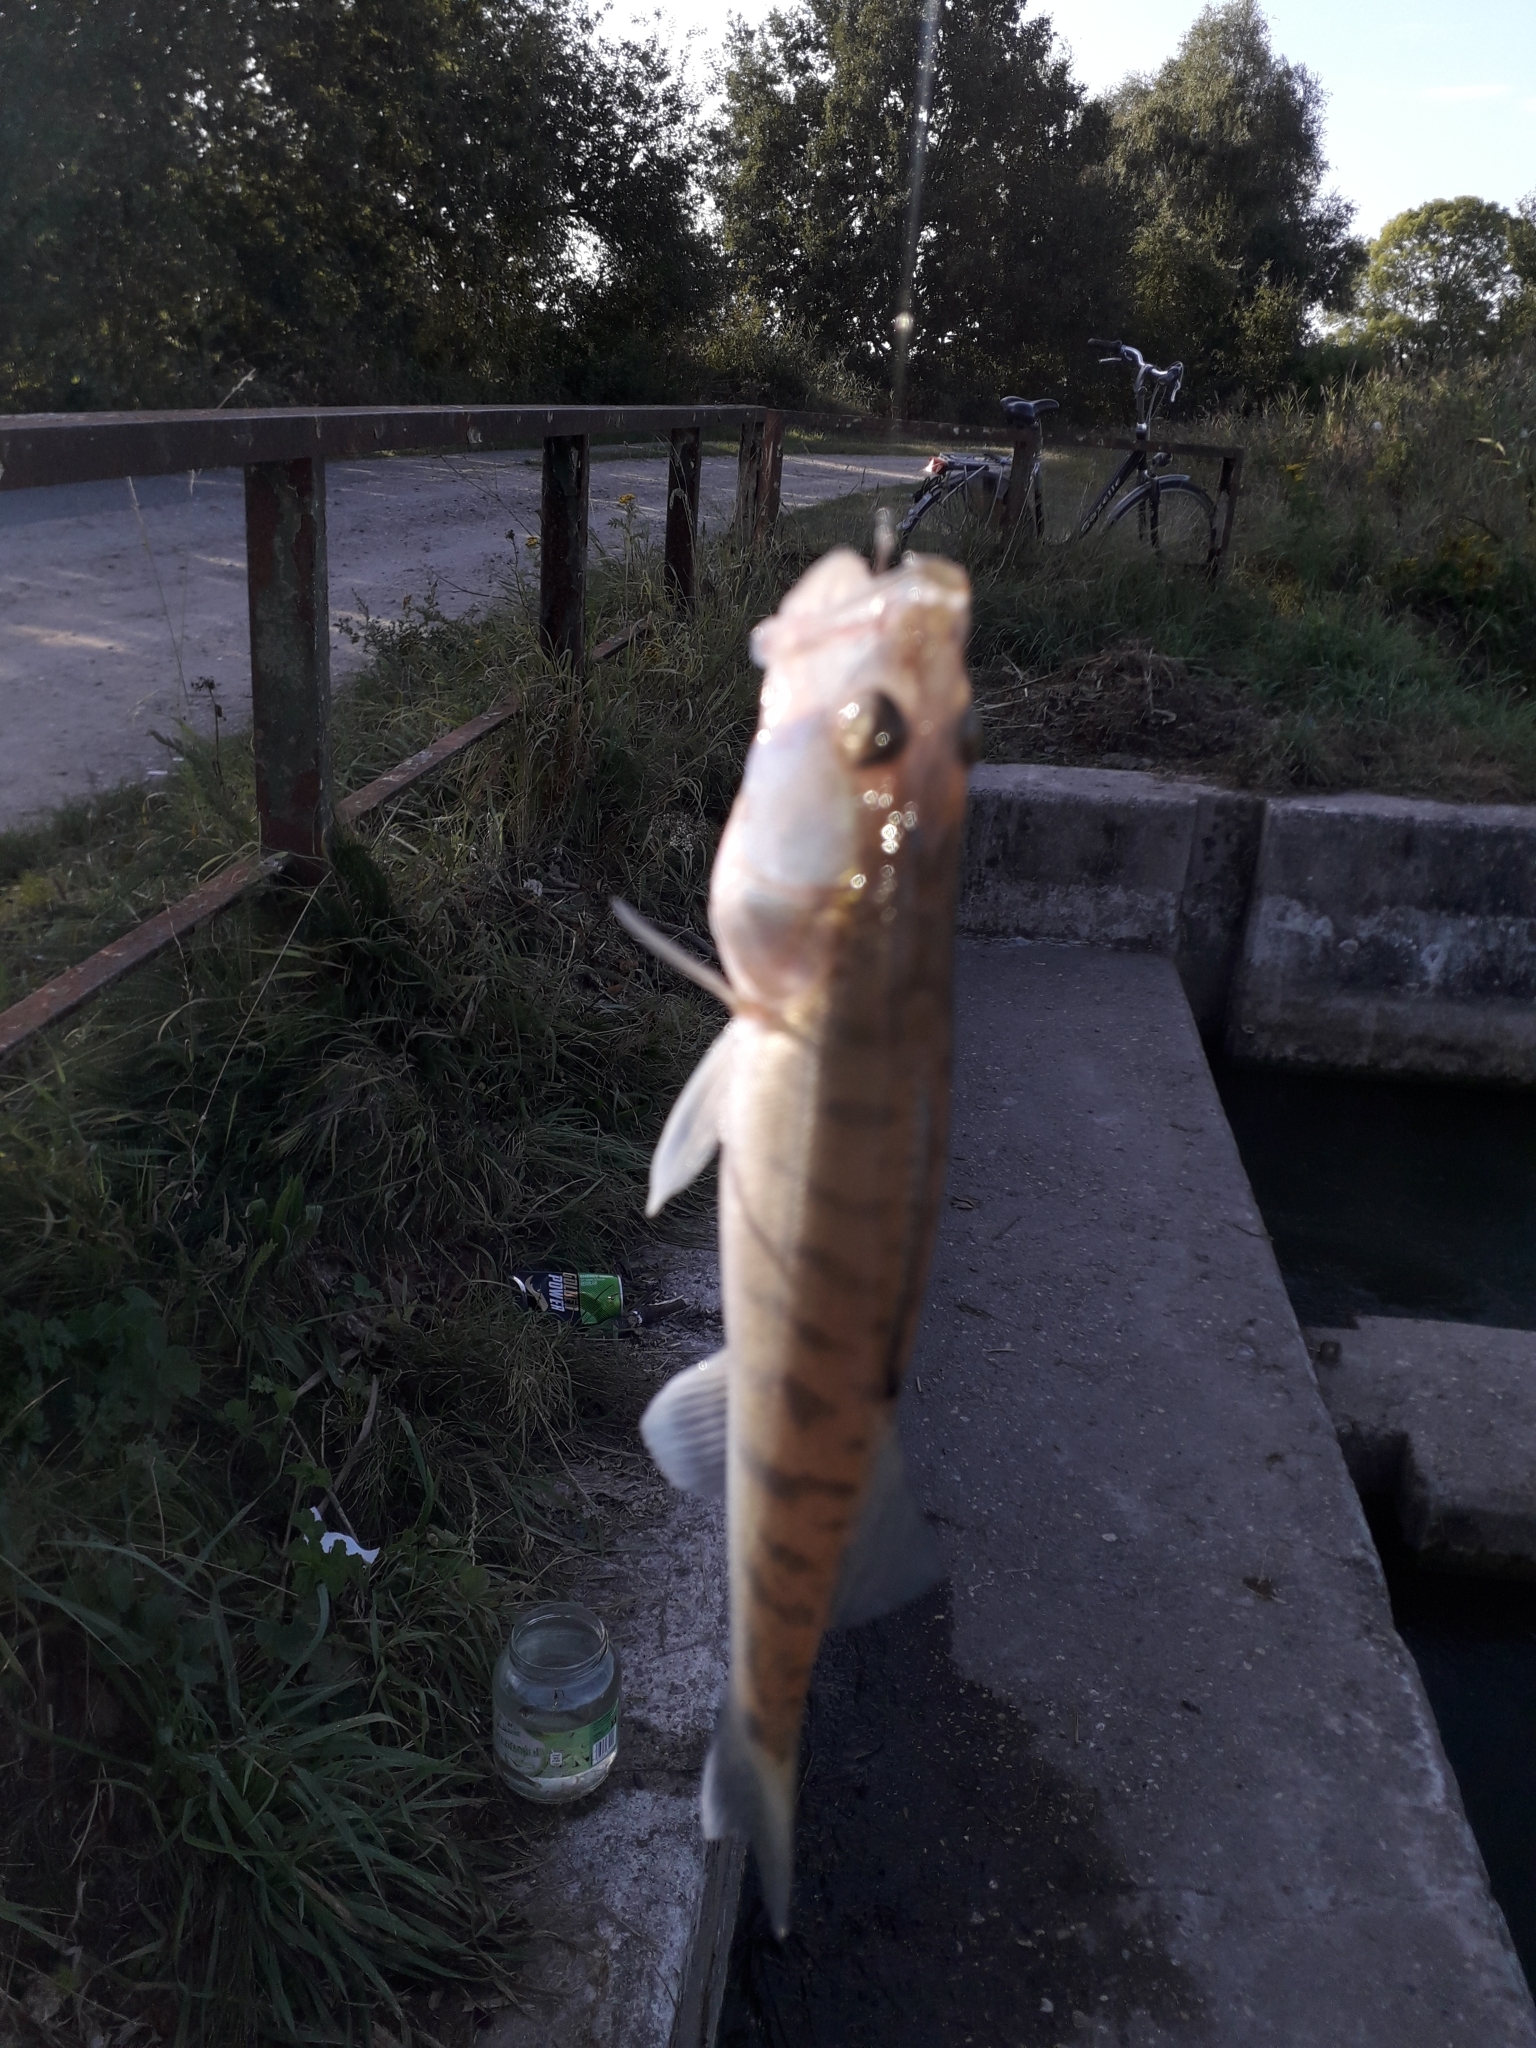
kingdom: Animalia
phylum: Chordata
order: Perciformes
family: Percidae
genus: Sander
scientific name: Sander lucioperca
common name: Pikeperch
